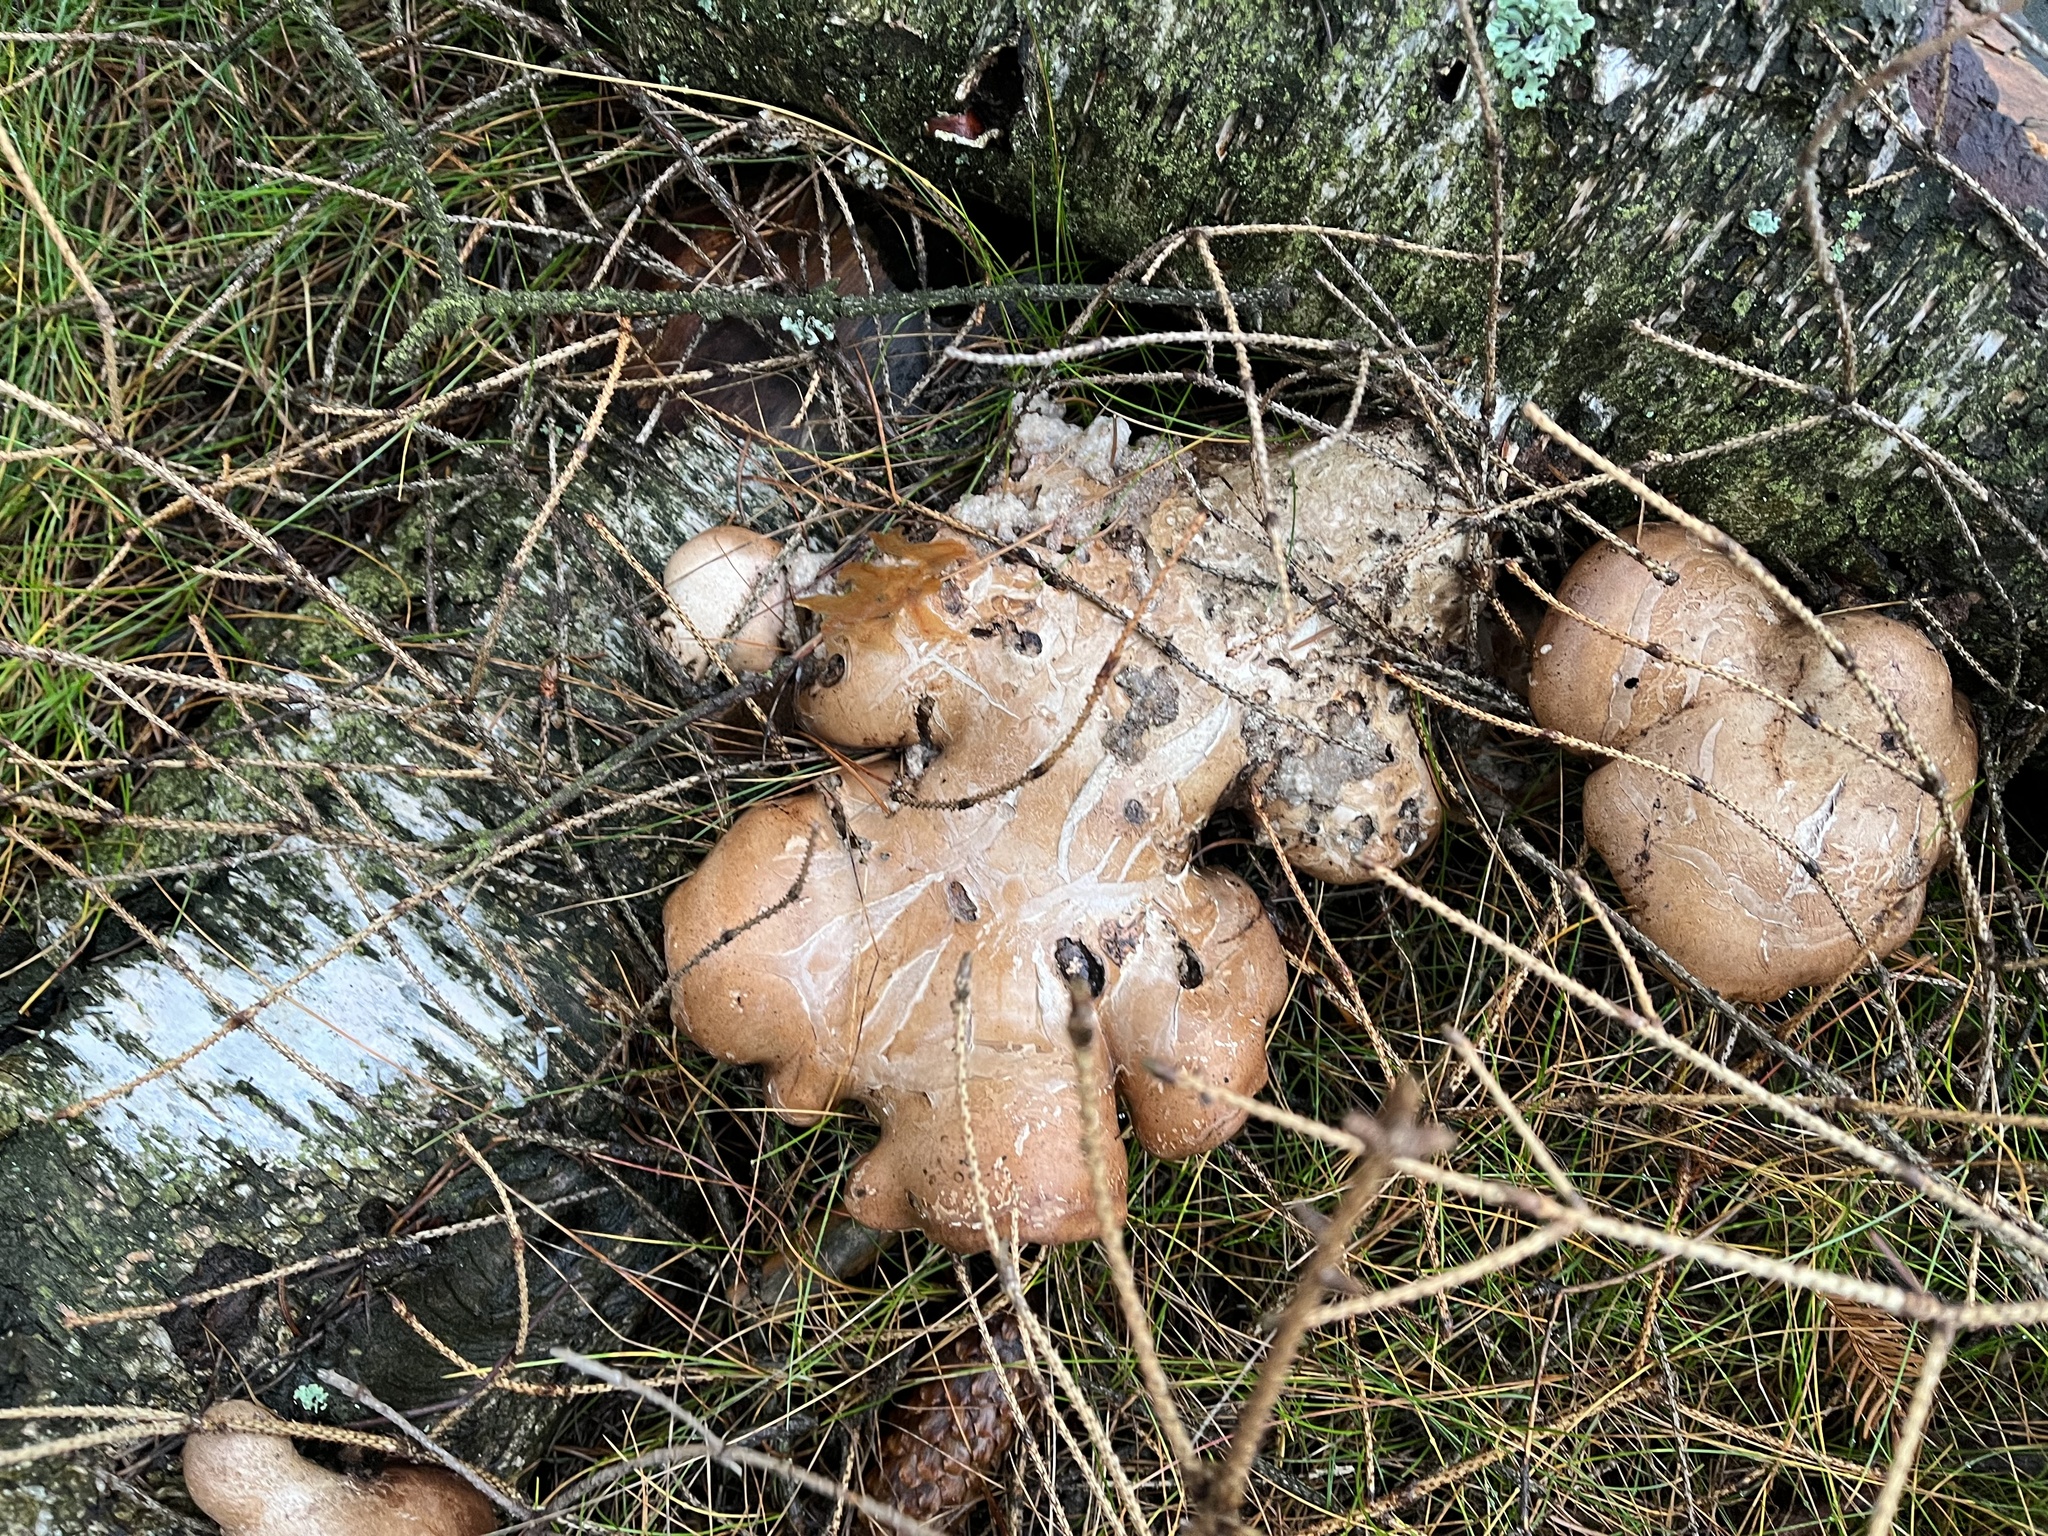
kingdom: Fungi
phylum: Basidiomycota
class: Agaricomycetes
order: Polyporales
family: Fomitopsidaceae
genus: Fomitopsis
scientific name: Fomitopsis betulina
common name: Birch polypore
